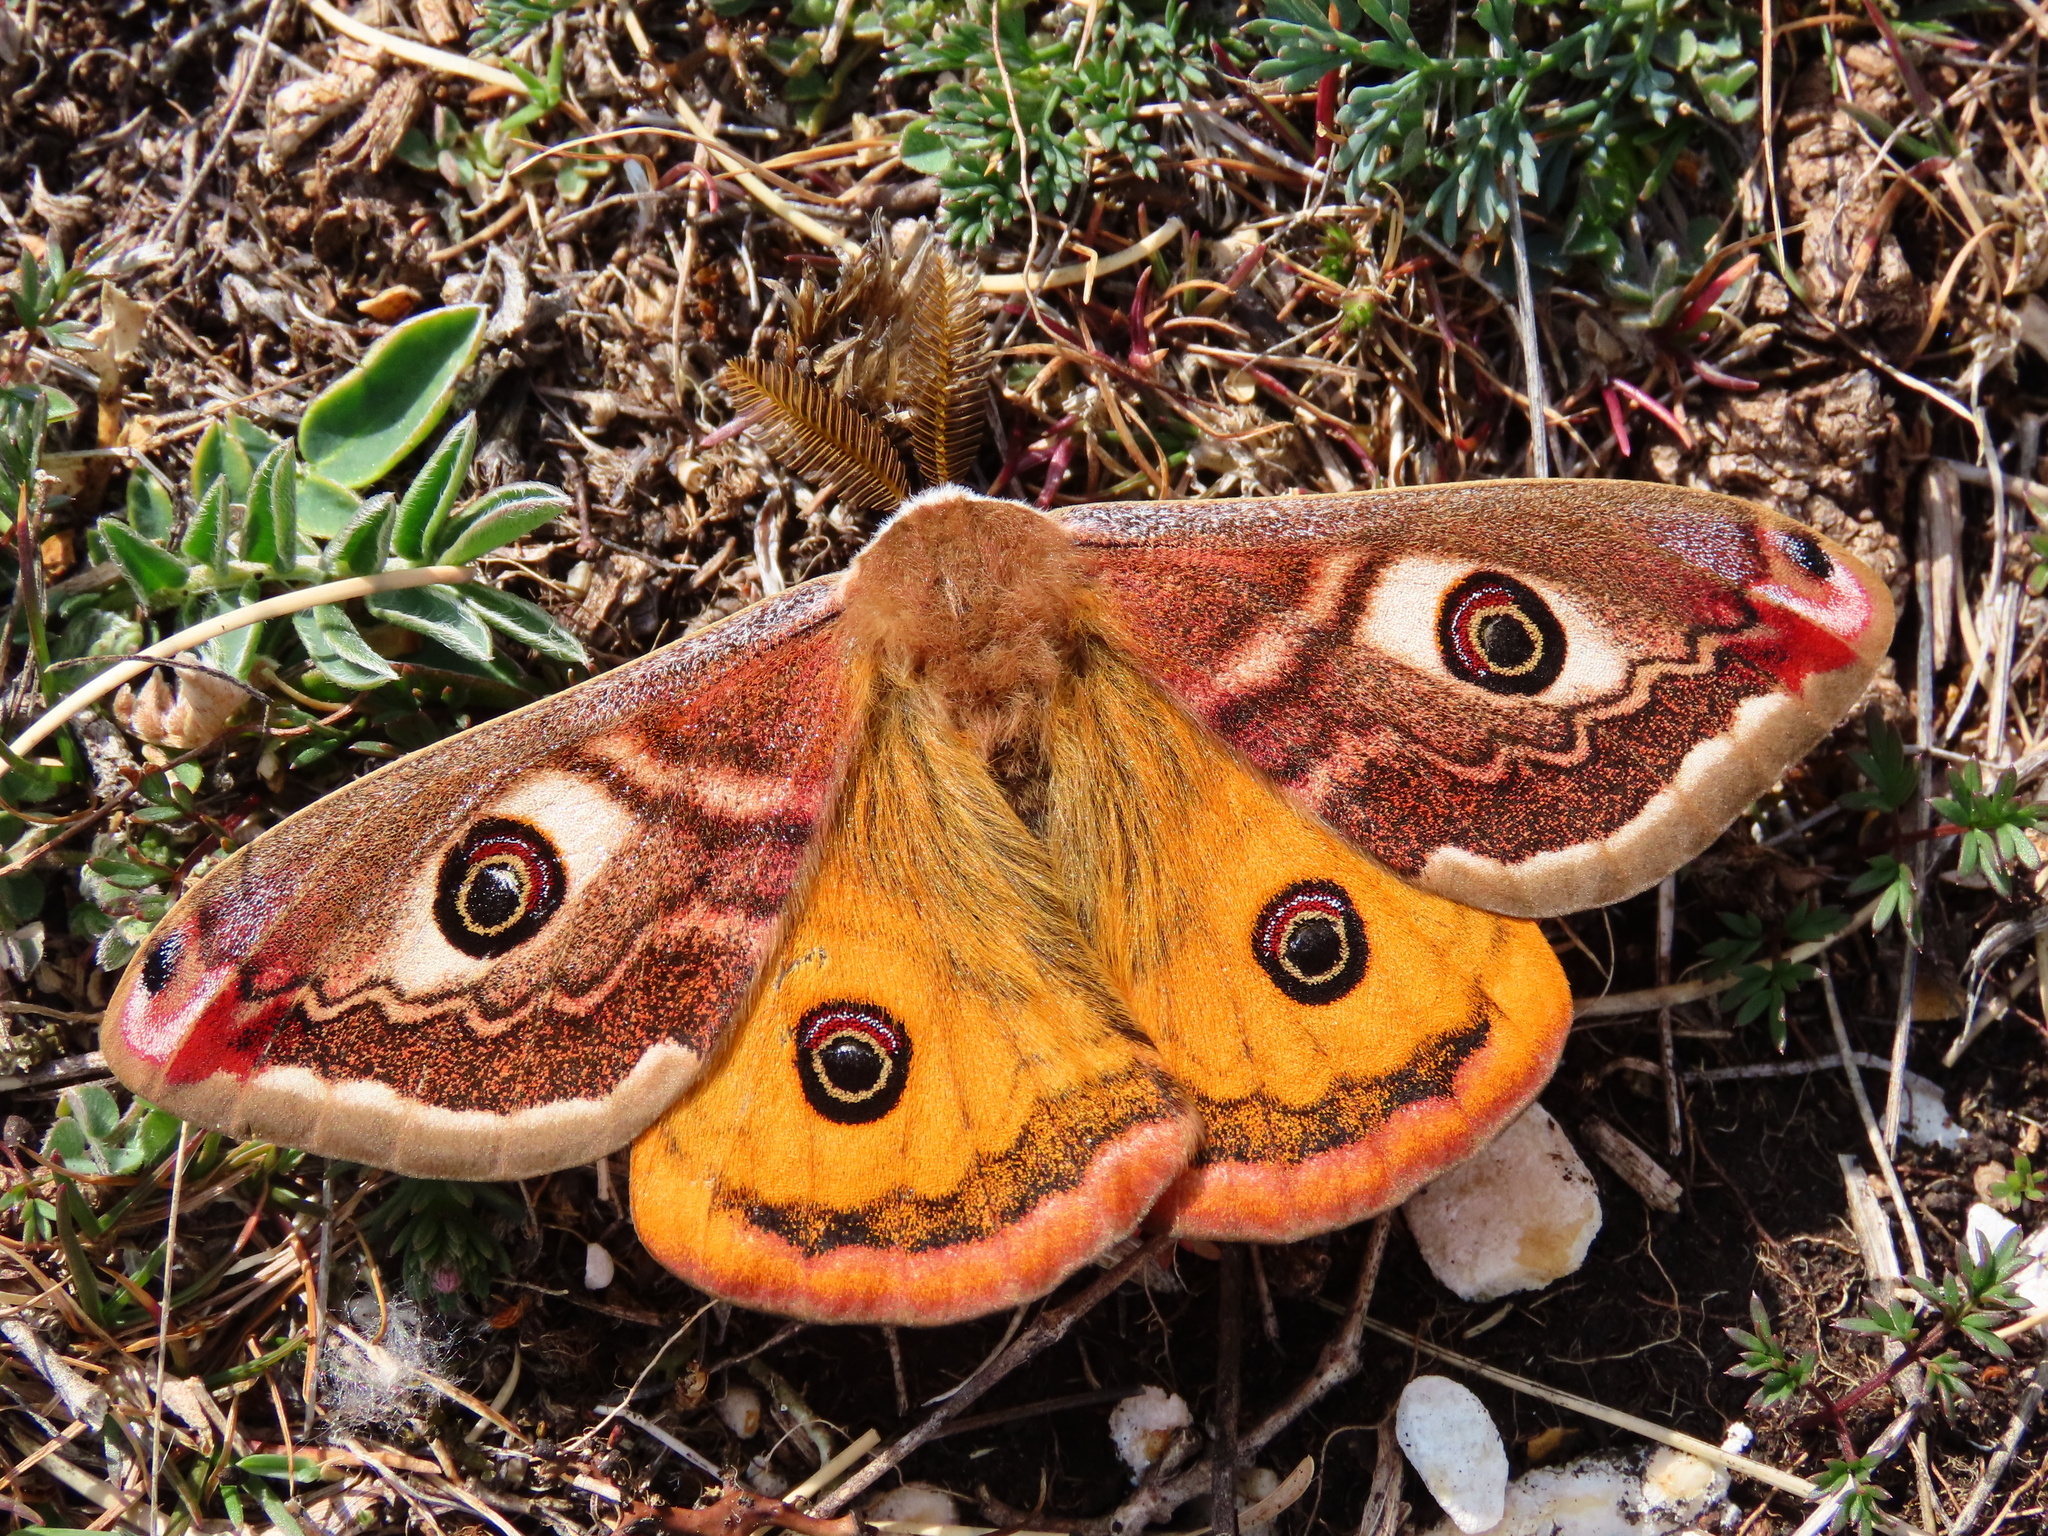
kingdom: Animalia
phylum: Arthropoda
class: Insecta
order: Lepidoptera
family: Saturniidae
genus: Saturnia
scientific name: Saturnia pavoniella
